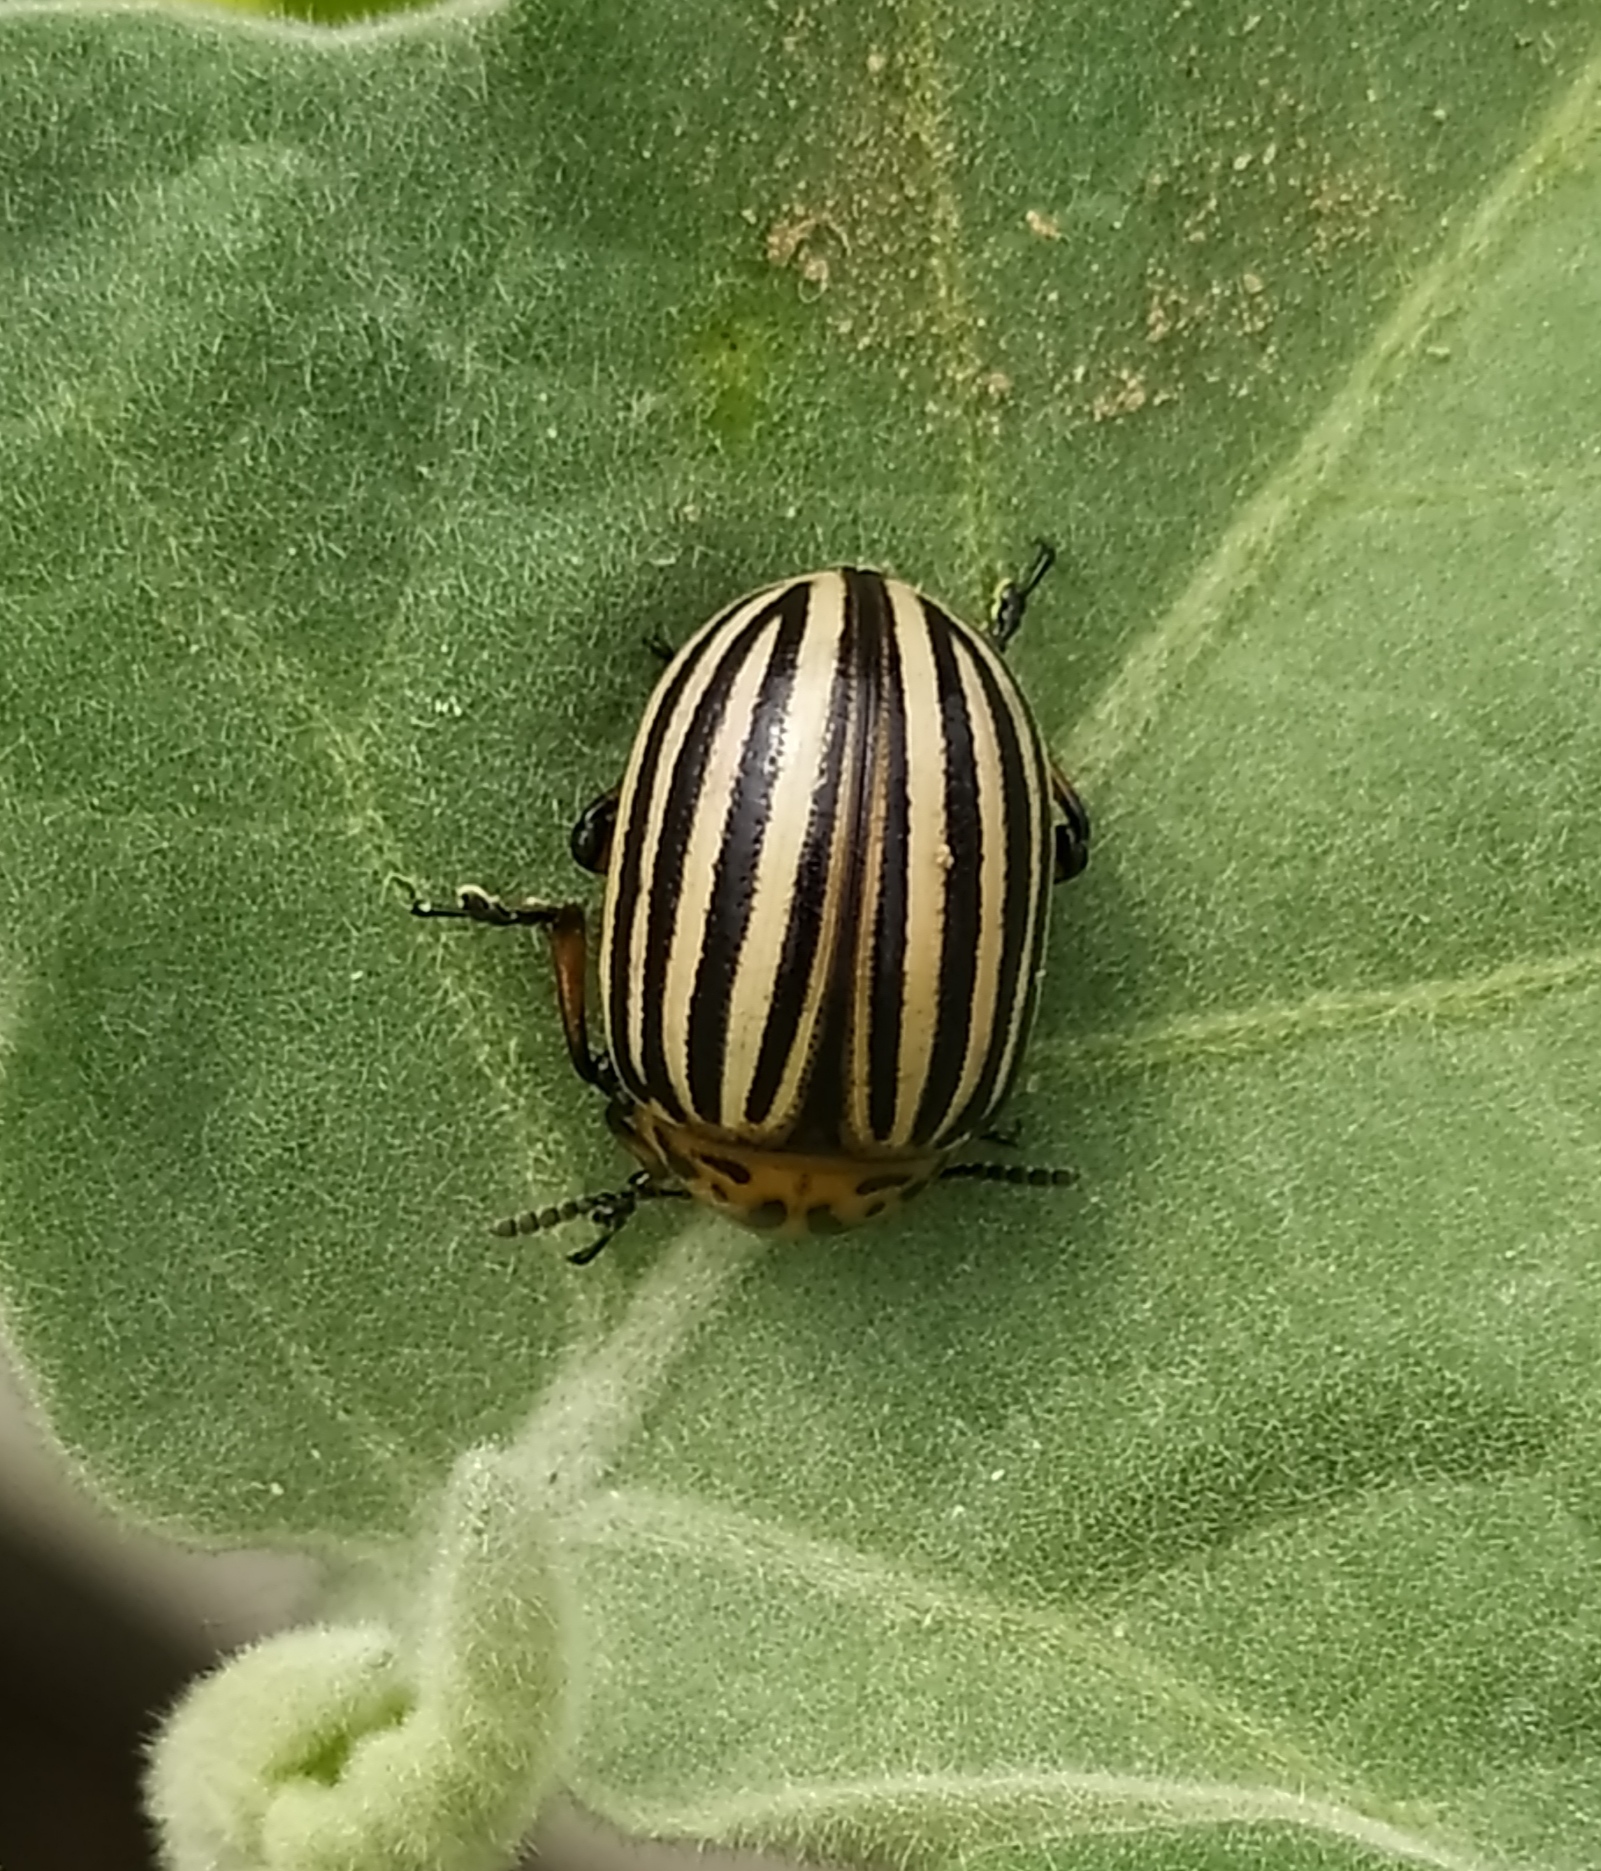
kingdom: Animalia
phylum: Arthropoda
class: Insecta
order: Coleoptera
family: Chrysomelidae
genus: Leptinotarsa
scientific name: Leptinotarsa decemlineata
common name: Colorado potato beetle
